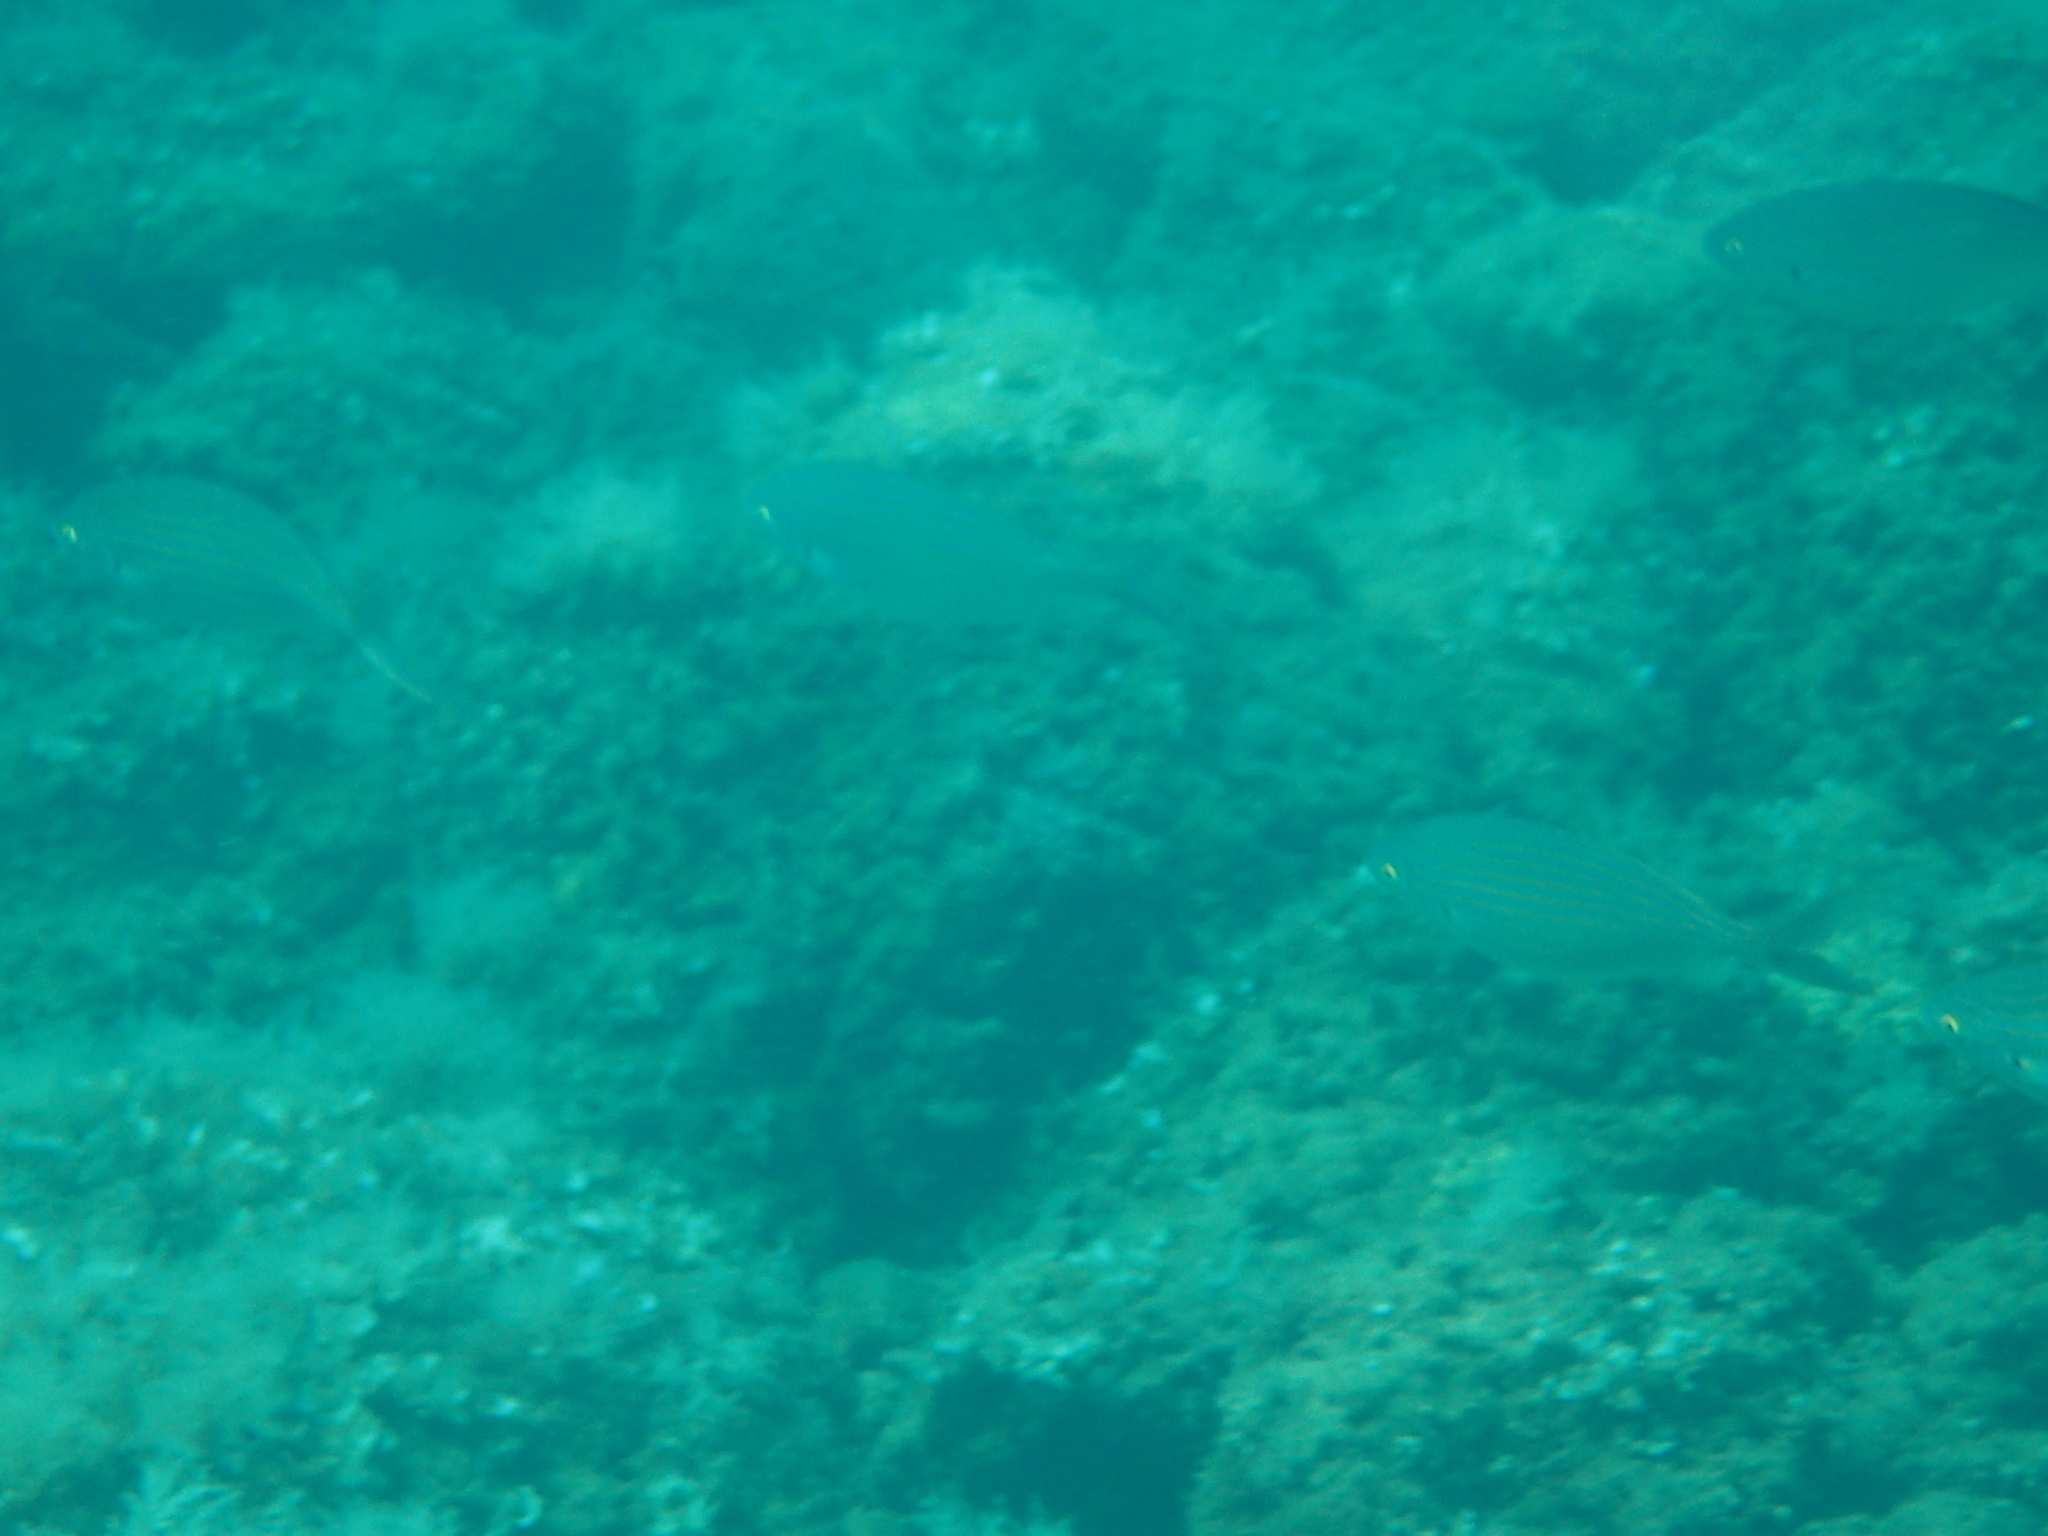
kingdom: Animalia
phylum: Chordata
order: Perciformes
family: Sparidae
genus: Sarpa
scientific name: Sarpa salpa
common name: Salema
